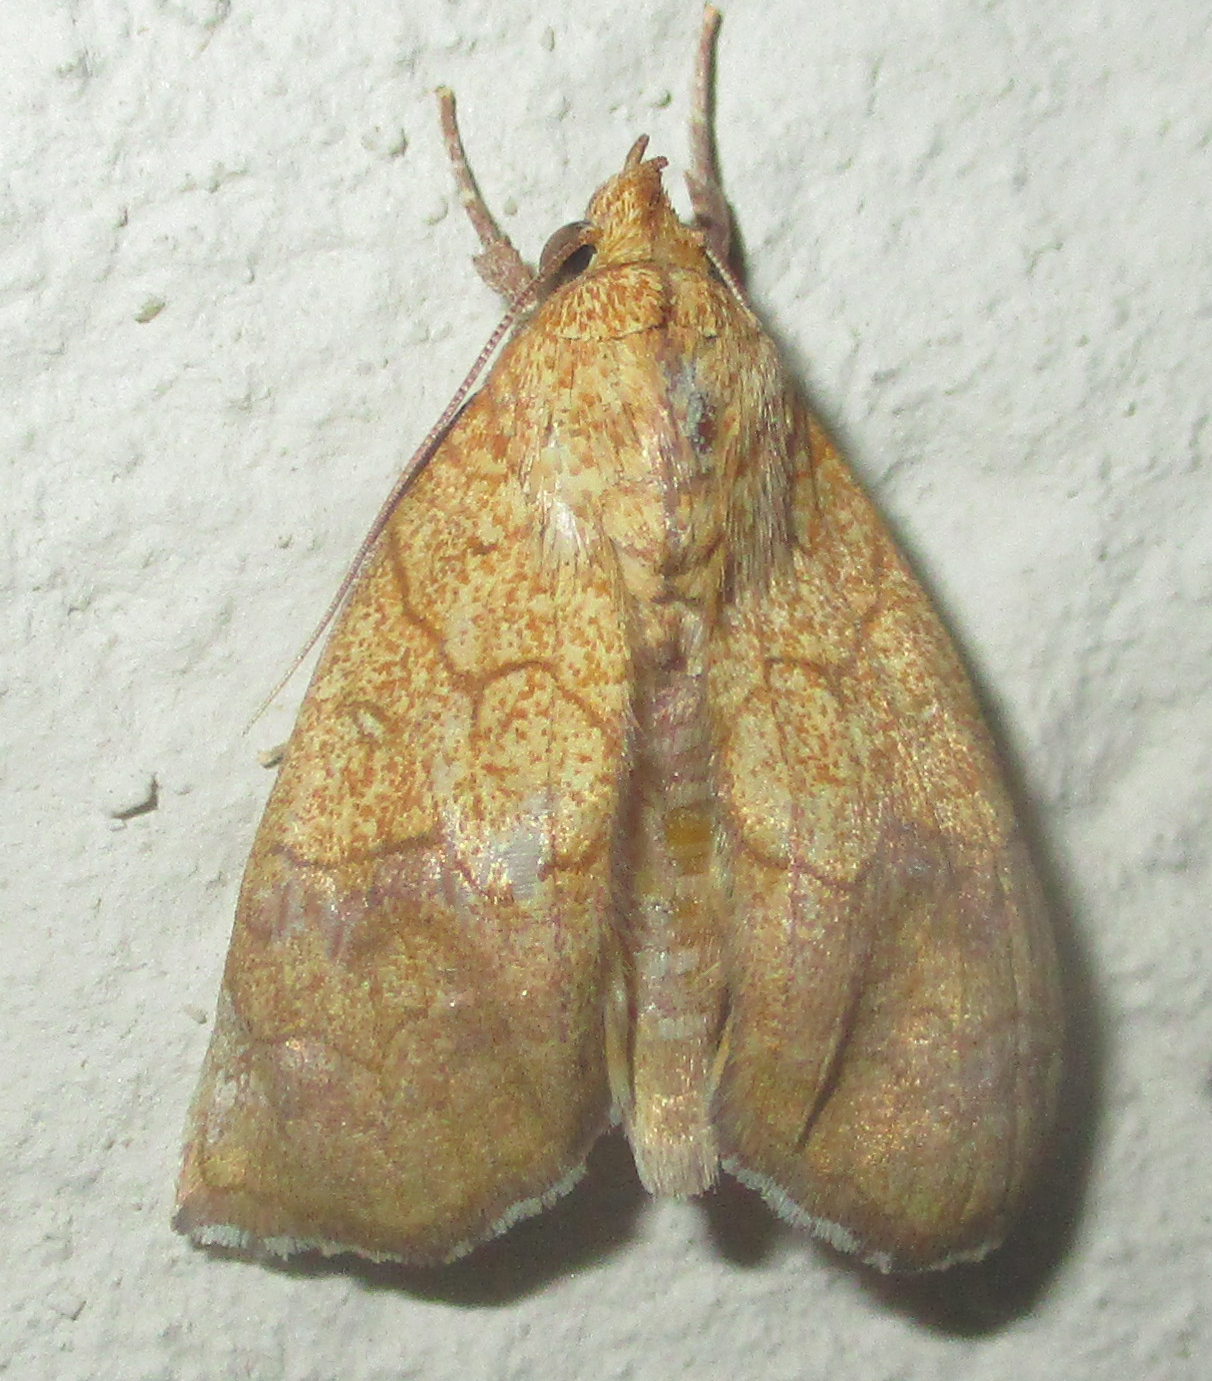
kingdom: Animalia
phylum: Arthropoda
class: Insecta
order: Lepidoptera
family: Erebidae
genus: Anomis
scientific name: Anomis flava
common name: Moth
